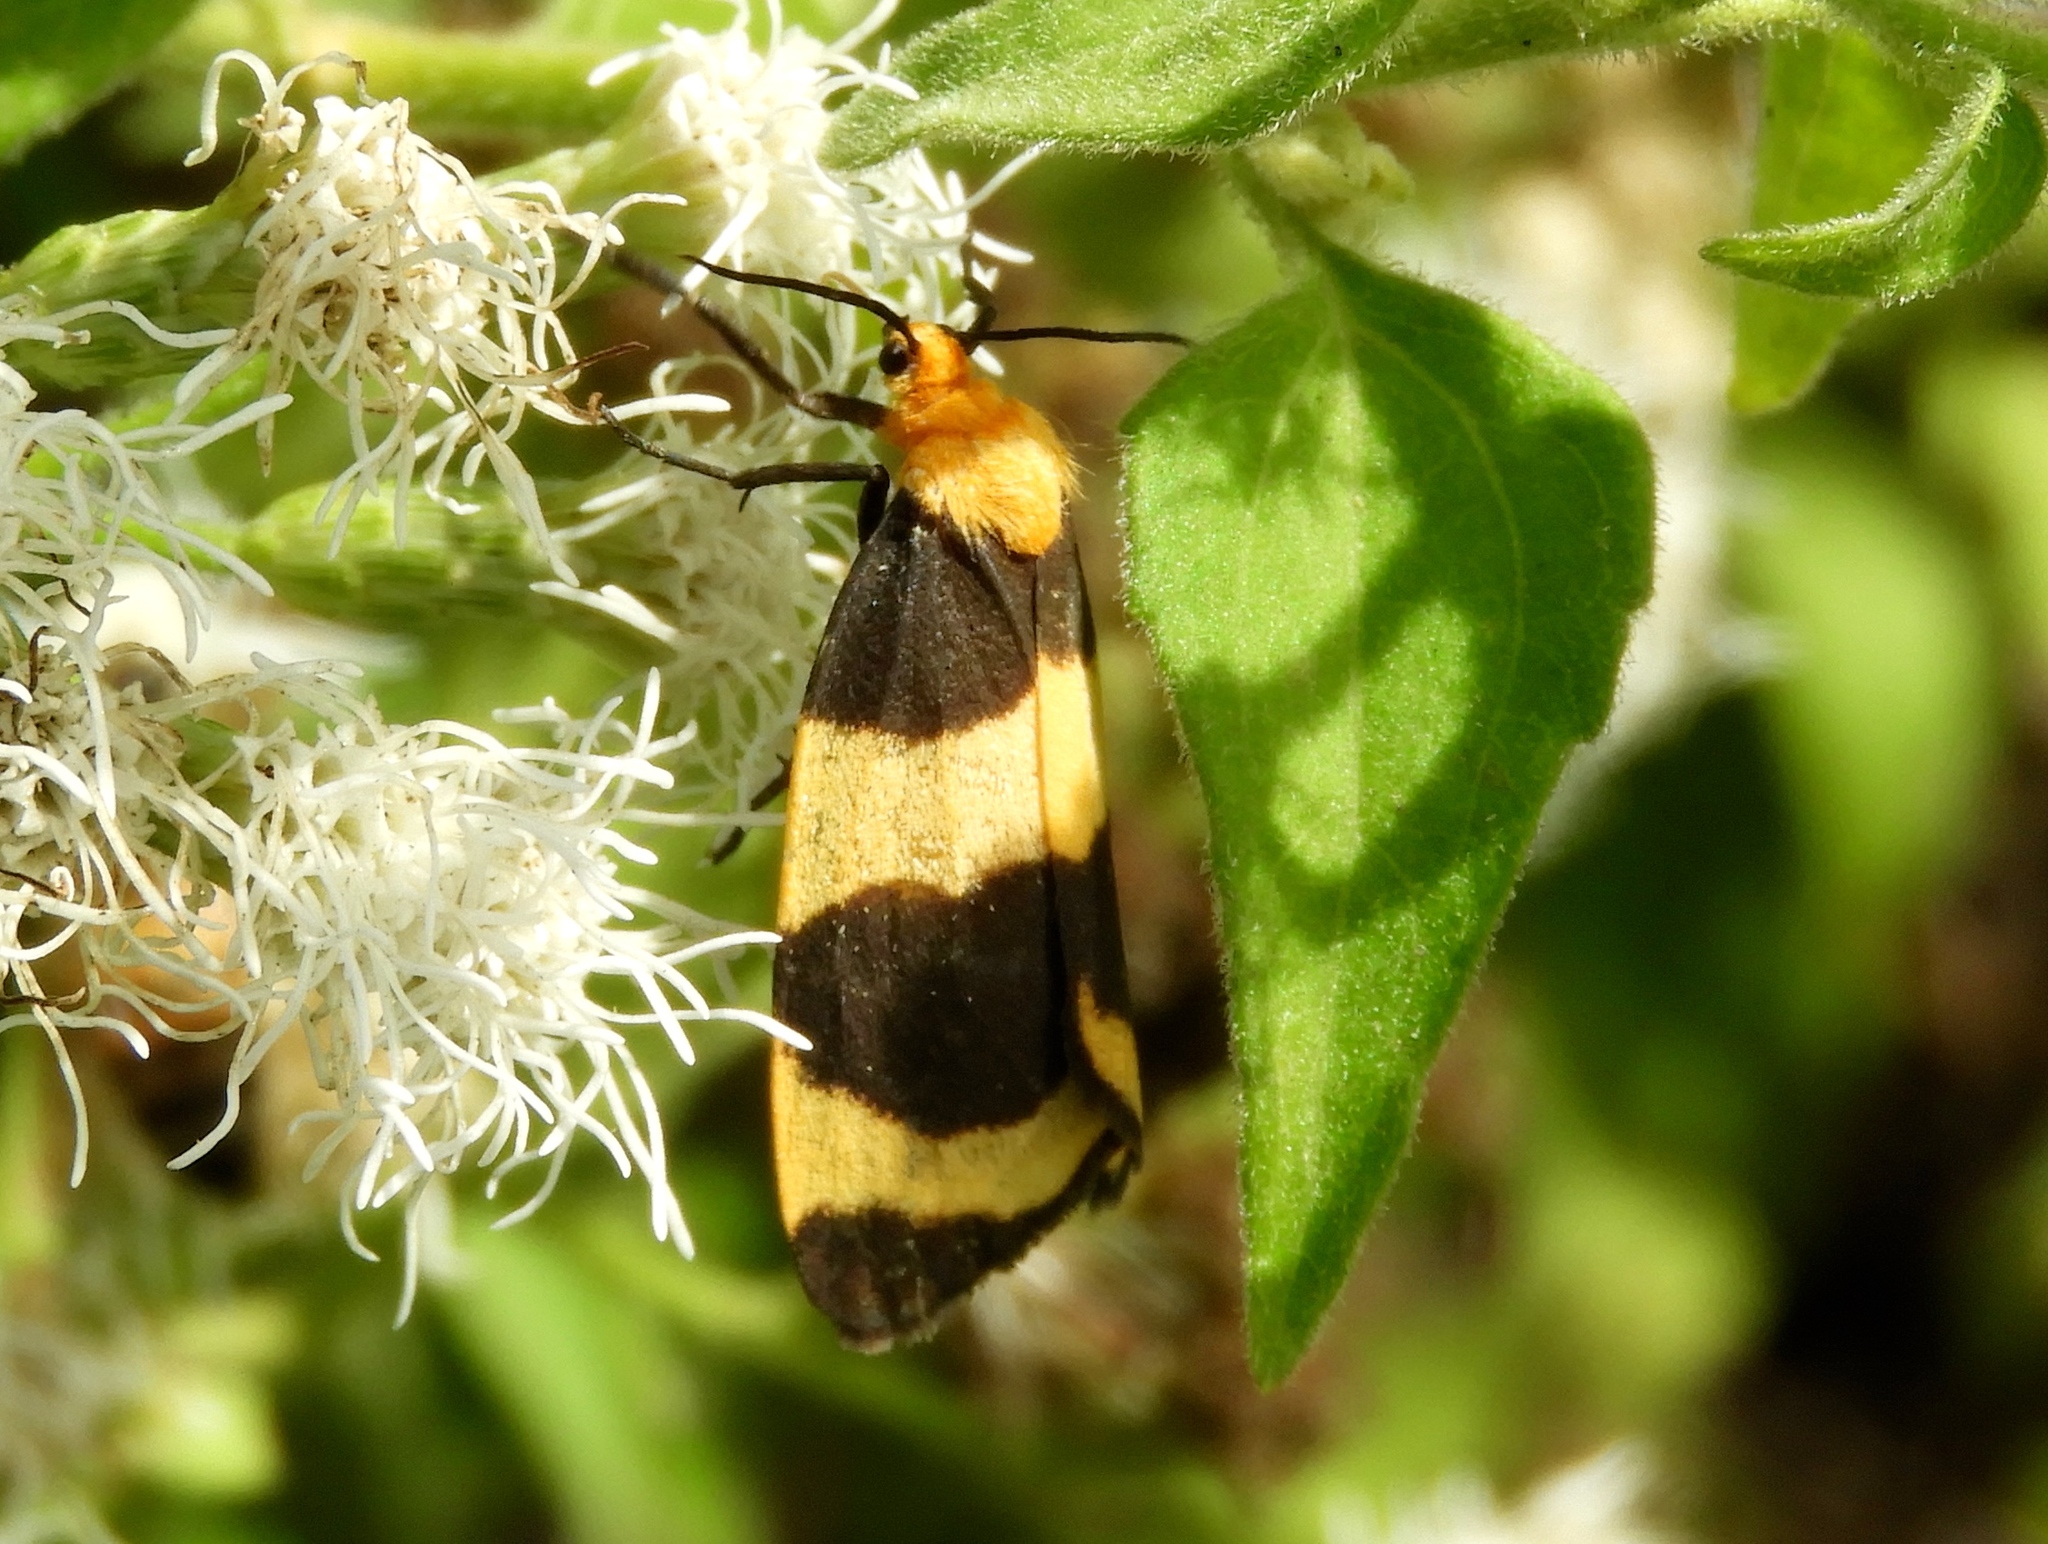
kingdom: Animalia
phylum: Arthropoda
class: Insecta
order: Lepidoptera
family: Erebidae
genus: Eudesmia
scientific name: Eudesmia menea
